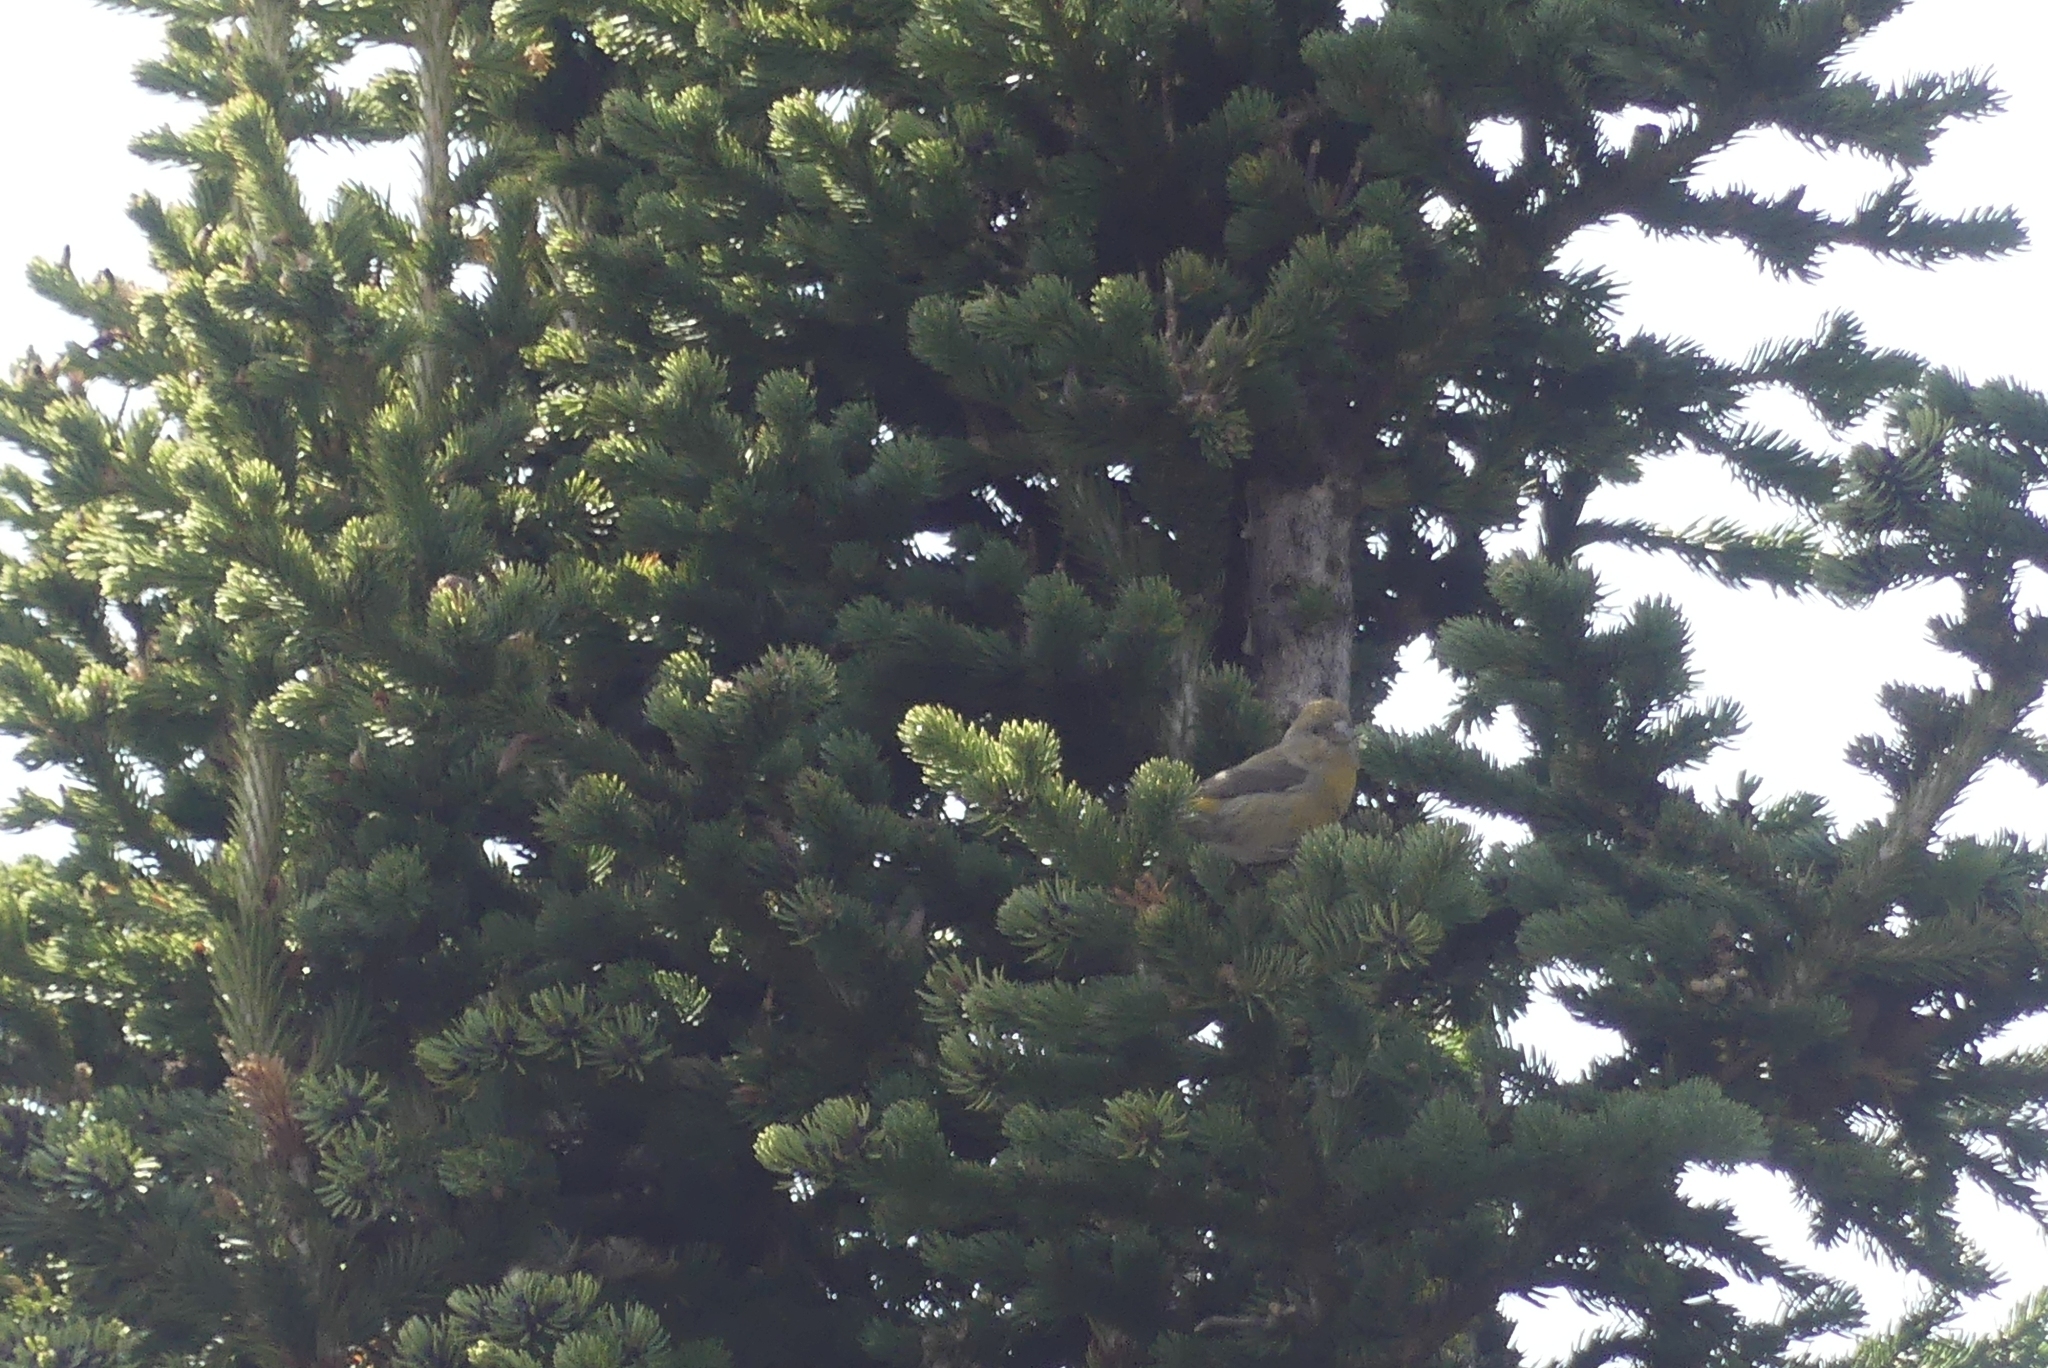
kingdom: Animalia
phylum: Chordata
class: Aves
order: Passeriformes
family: Fringillidae
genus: Loxia
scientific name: Loxia curvirostra
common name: Red crossbill
